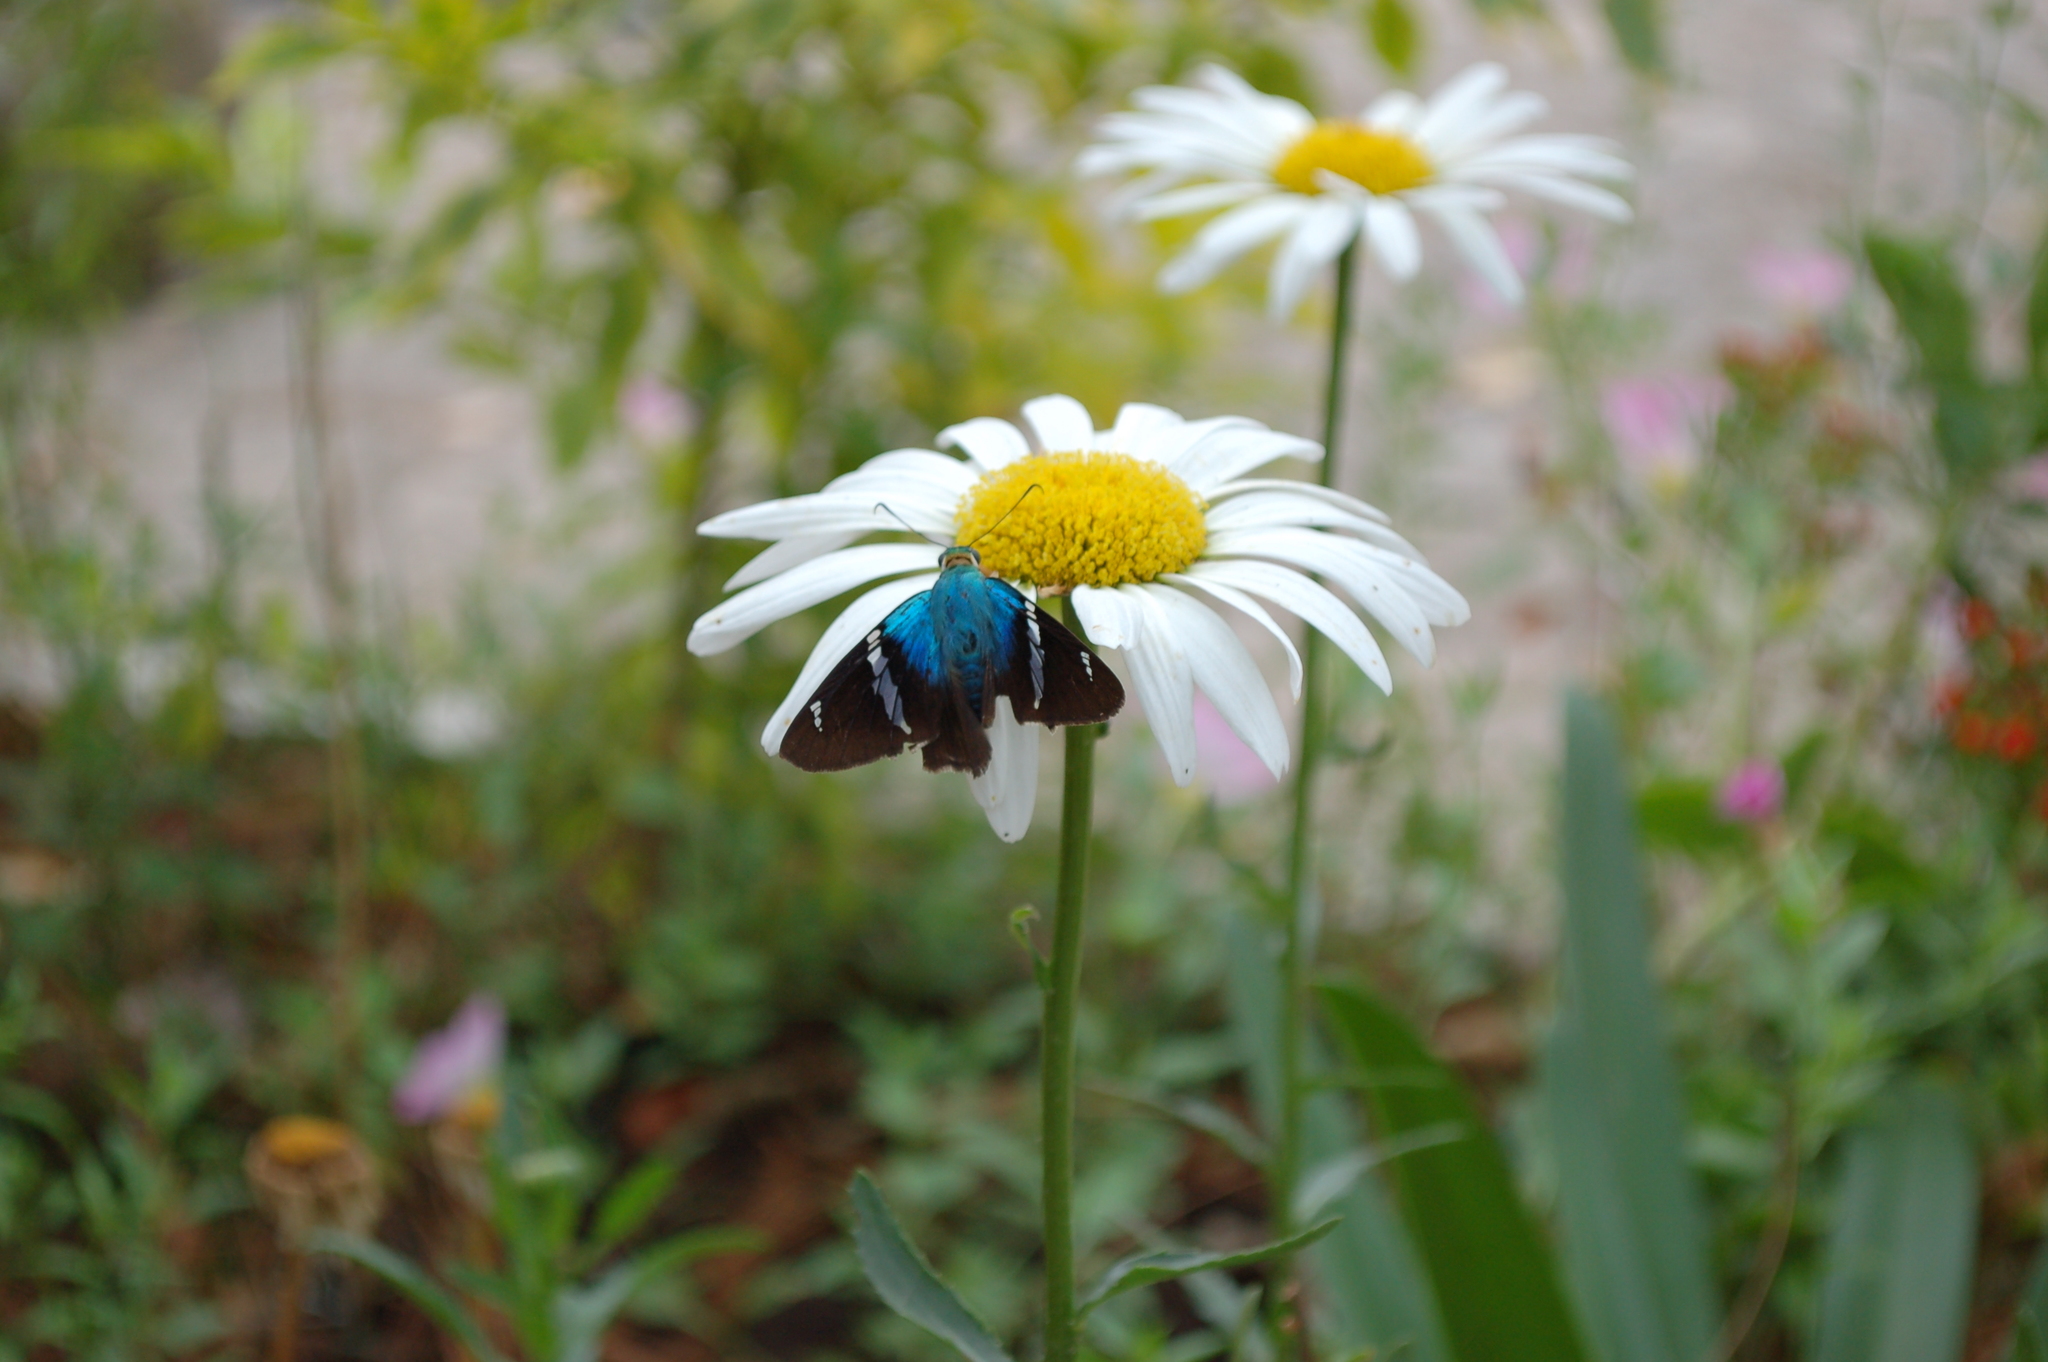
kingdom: Animalia
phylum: Arthropoda
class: Insecta
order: Lepidoptera
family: Hesperiidae
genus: Astraptes
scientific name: Astraptes fulgerator
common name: Two-barred flasher
